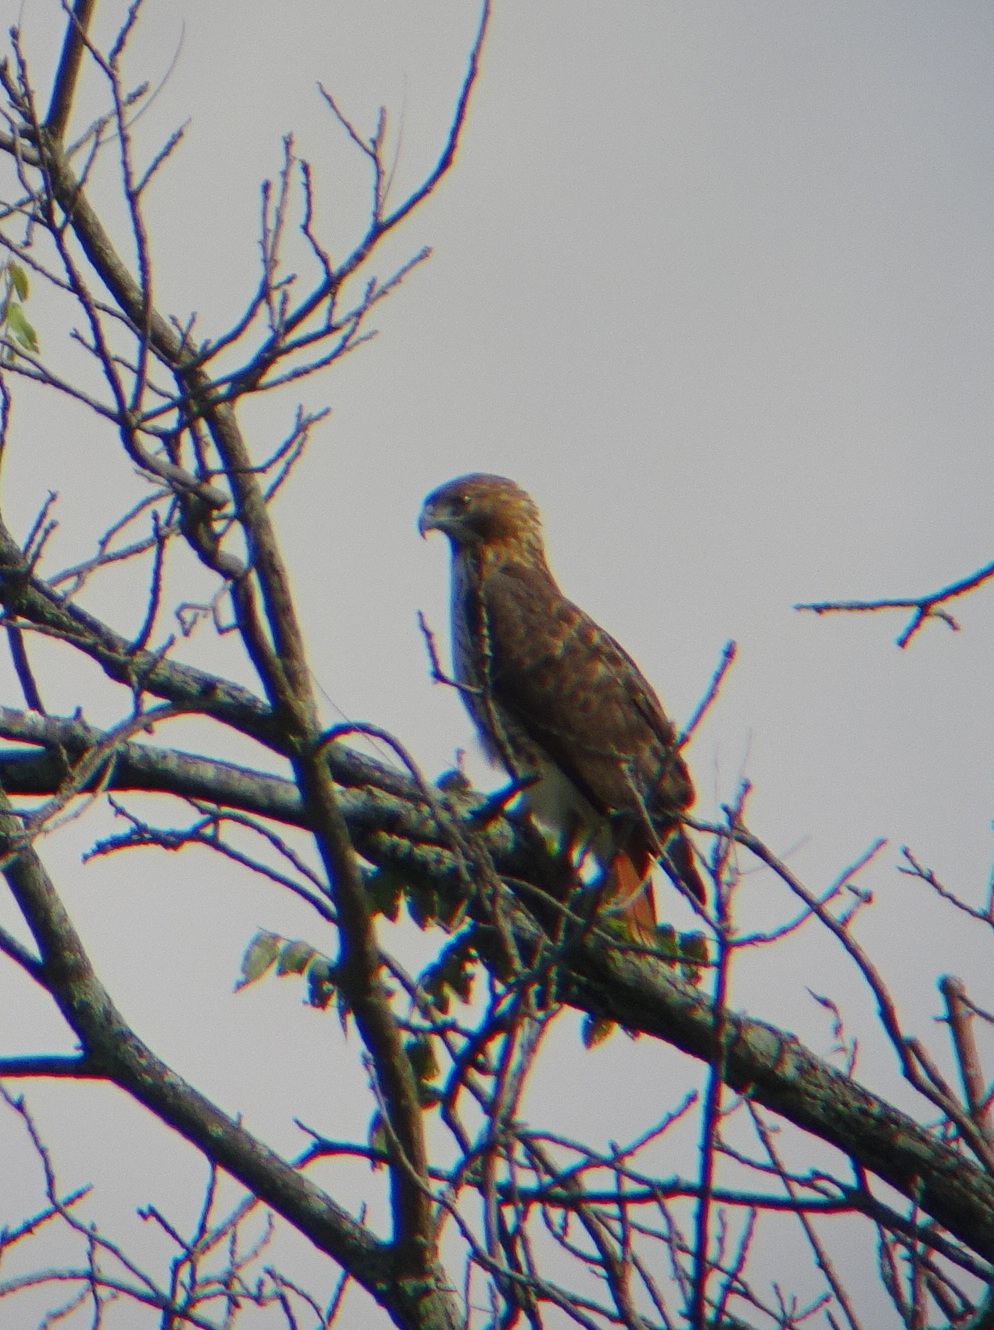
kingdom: Animalia
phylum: Chordata
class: Aves
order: Accipitriformes
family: Accipitridae
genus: Buteo
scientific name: Buteo jamaicensis
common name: Red-tailed hawk
